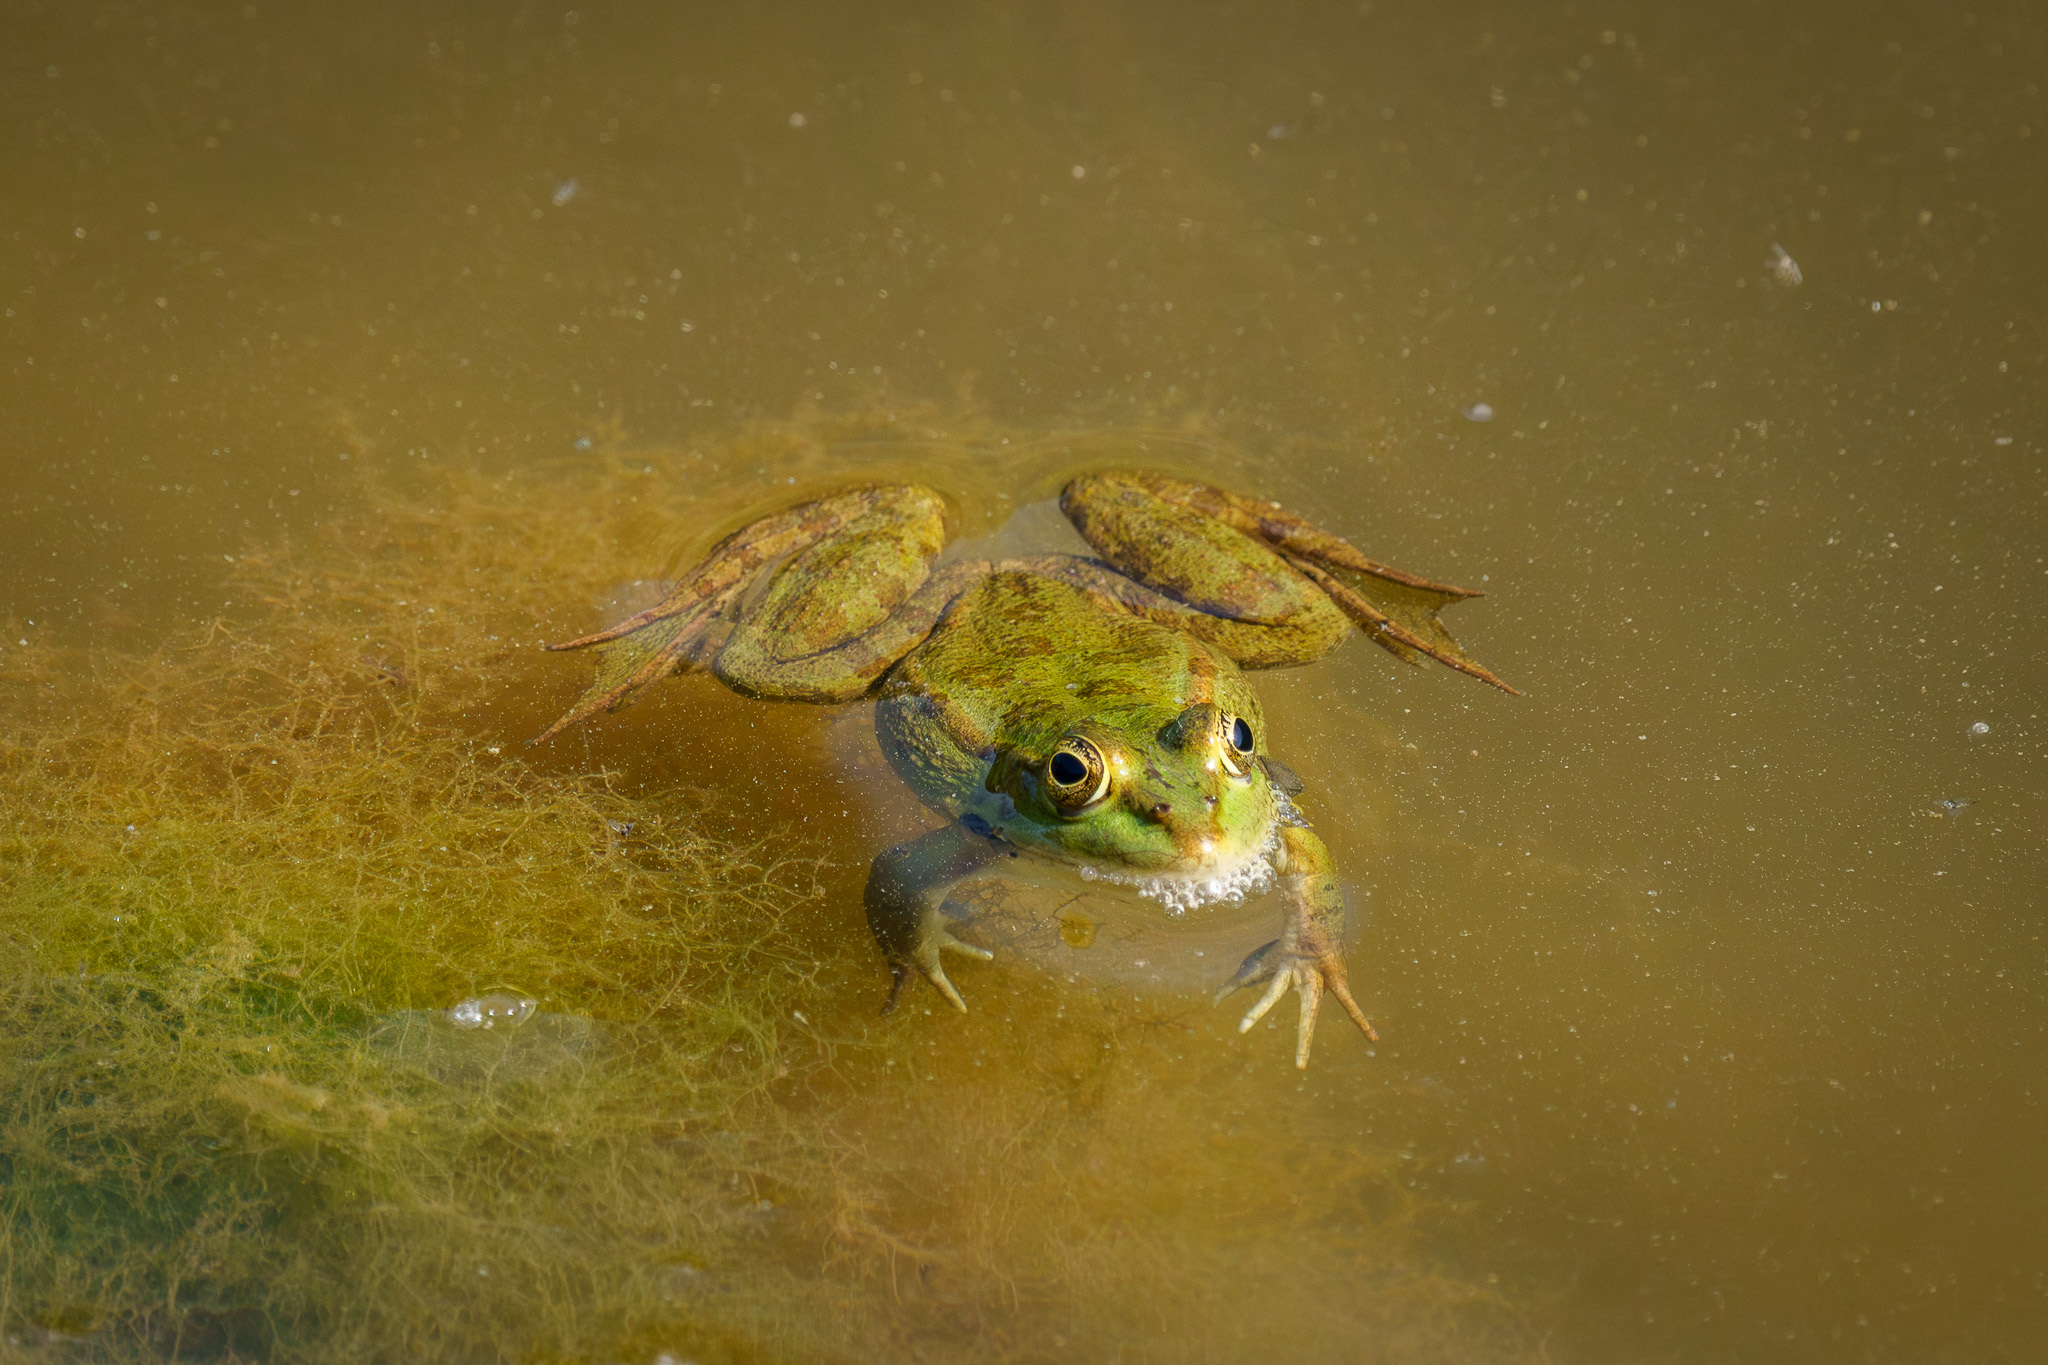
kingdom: Animalia
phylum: Chordata
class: Amphibia
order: Anura
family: Ranidae
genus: Pelophylax
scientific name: Pelophylax ridibundus
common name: Marsh frog
